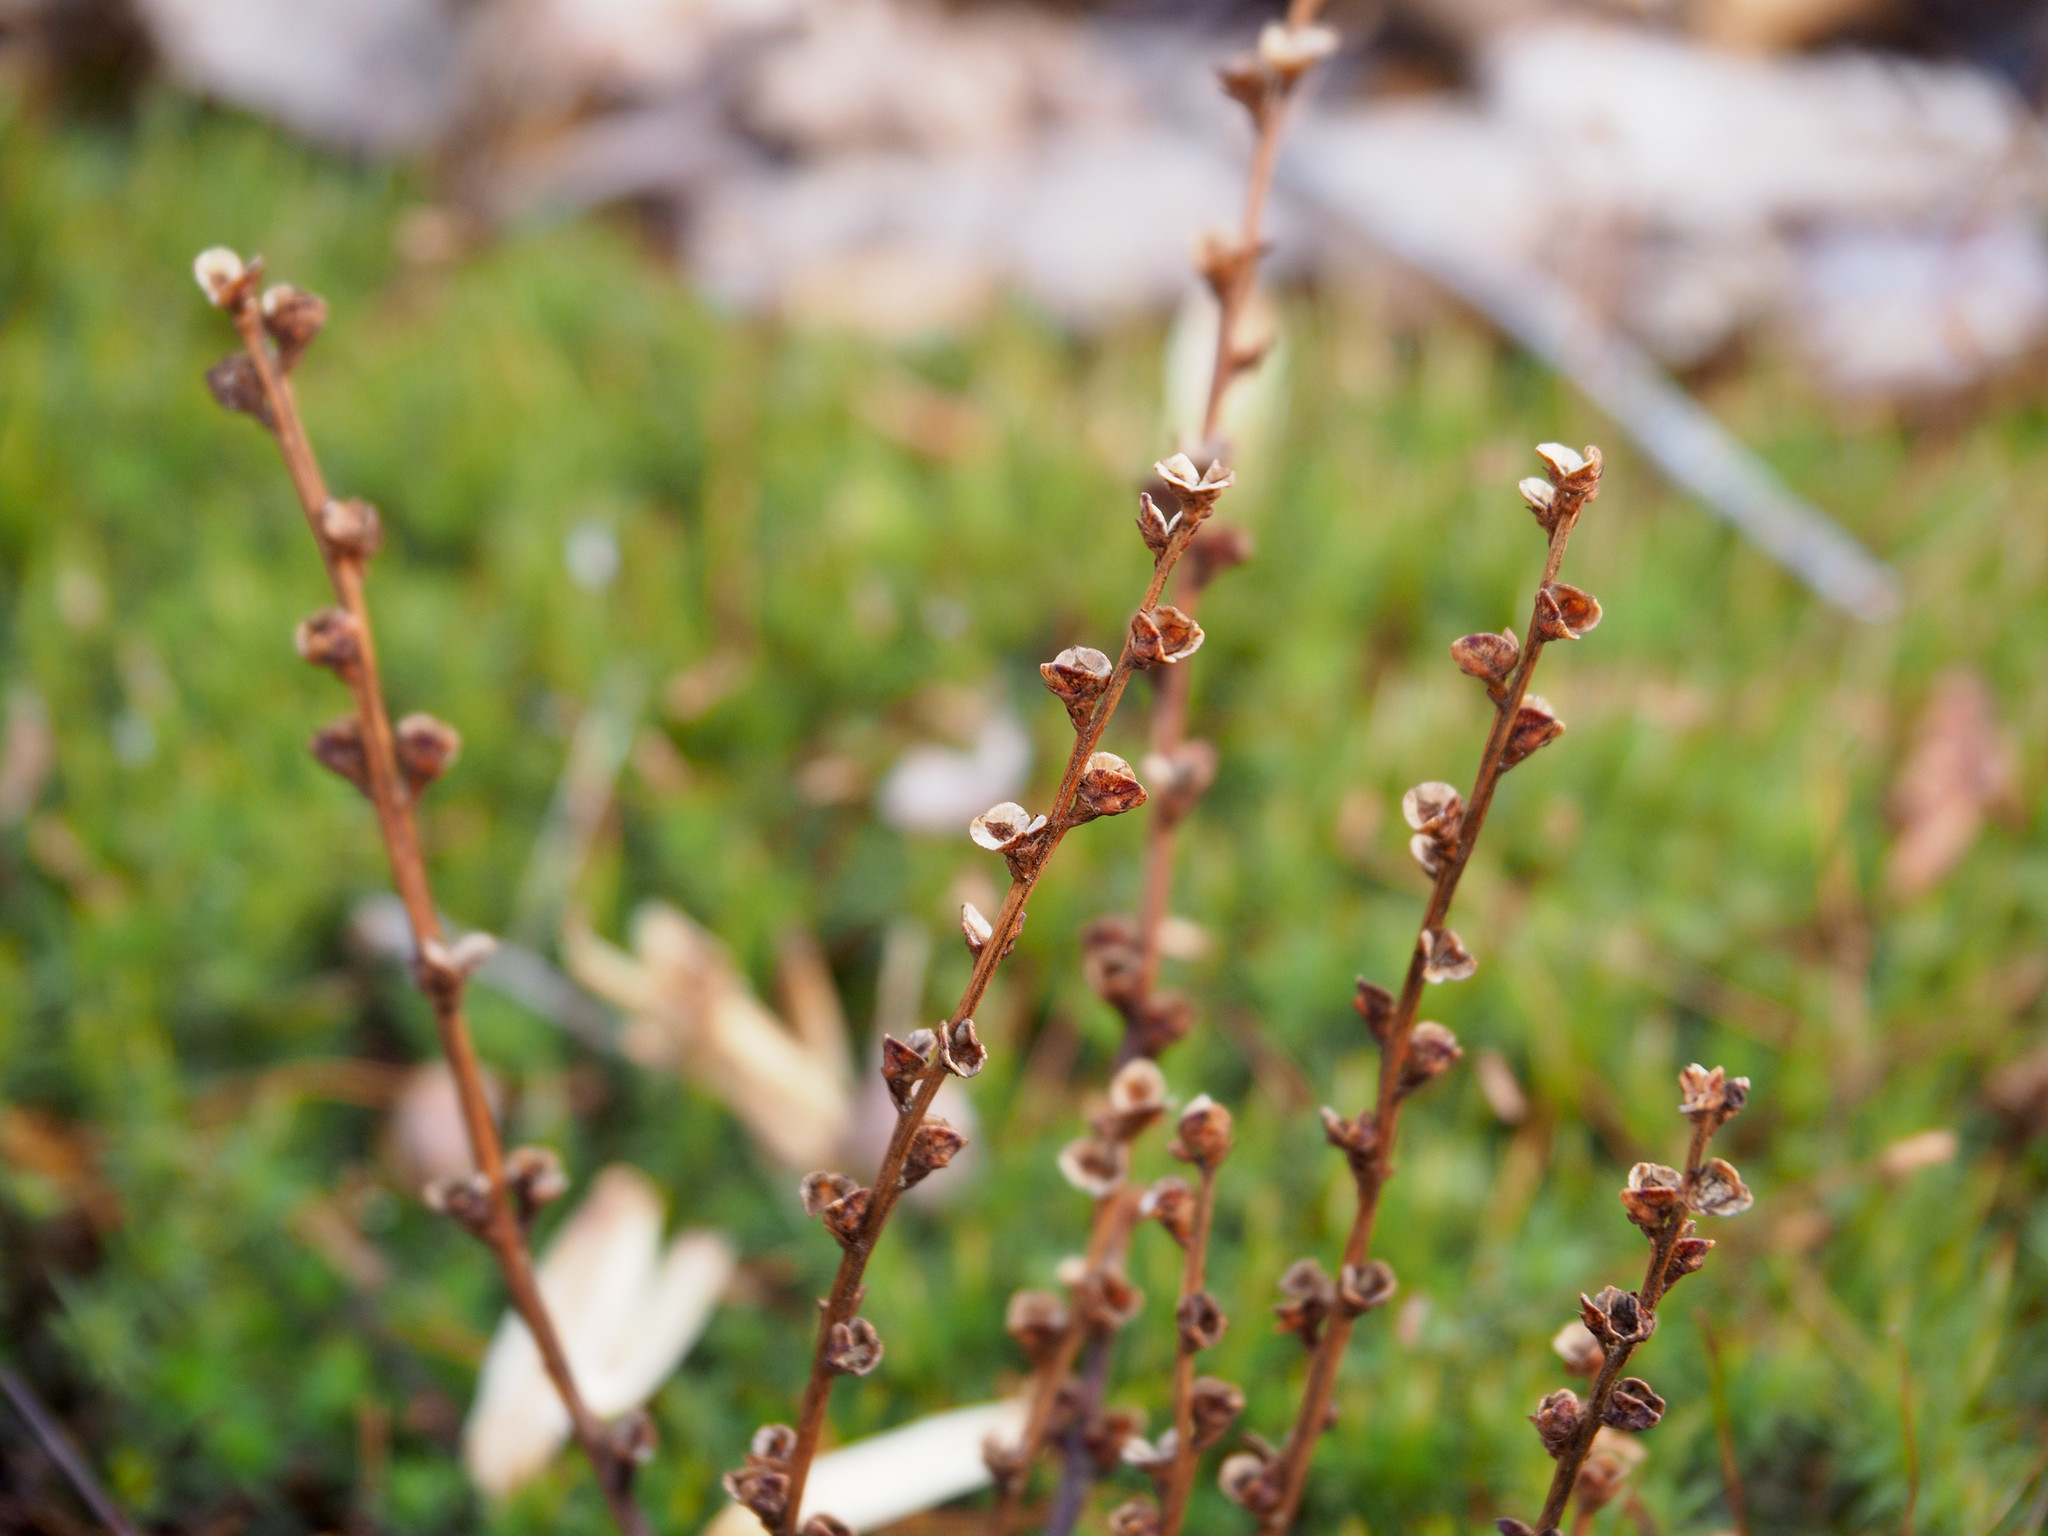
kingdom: Plantae
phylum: Tracheophyta
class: Magnoliopsida
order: Lamiales
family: Orobanchaceae
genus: Epifagus
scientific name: Epifagus virginiana
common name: Beechdrops
